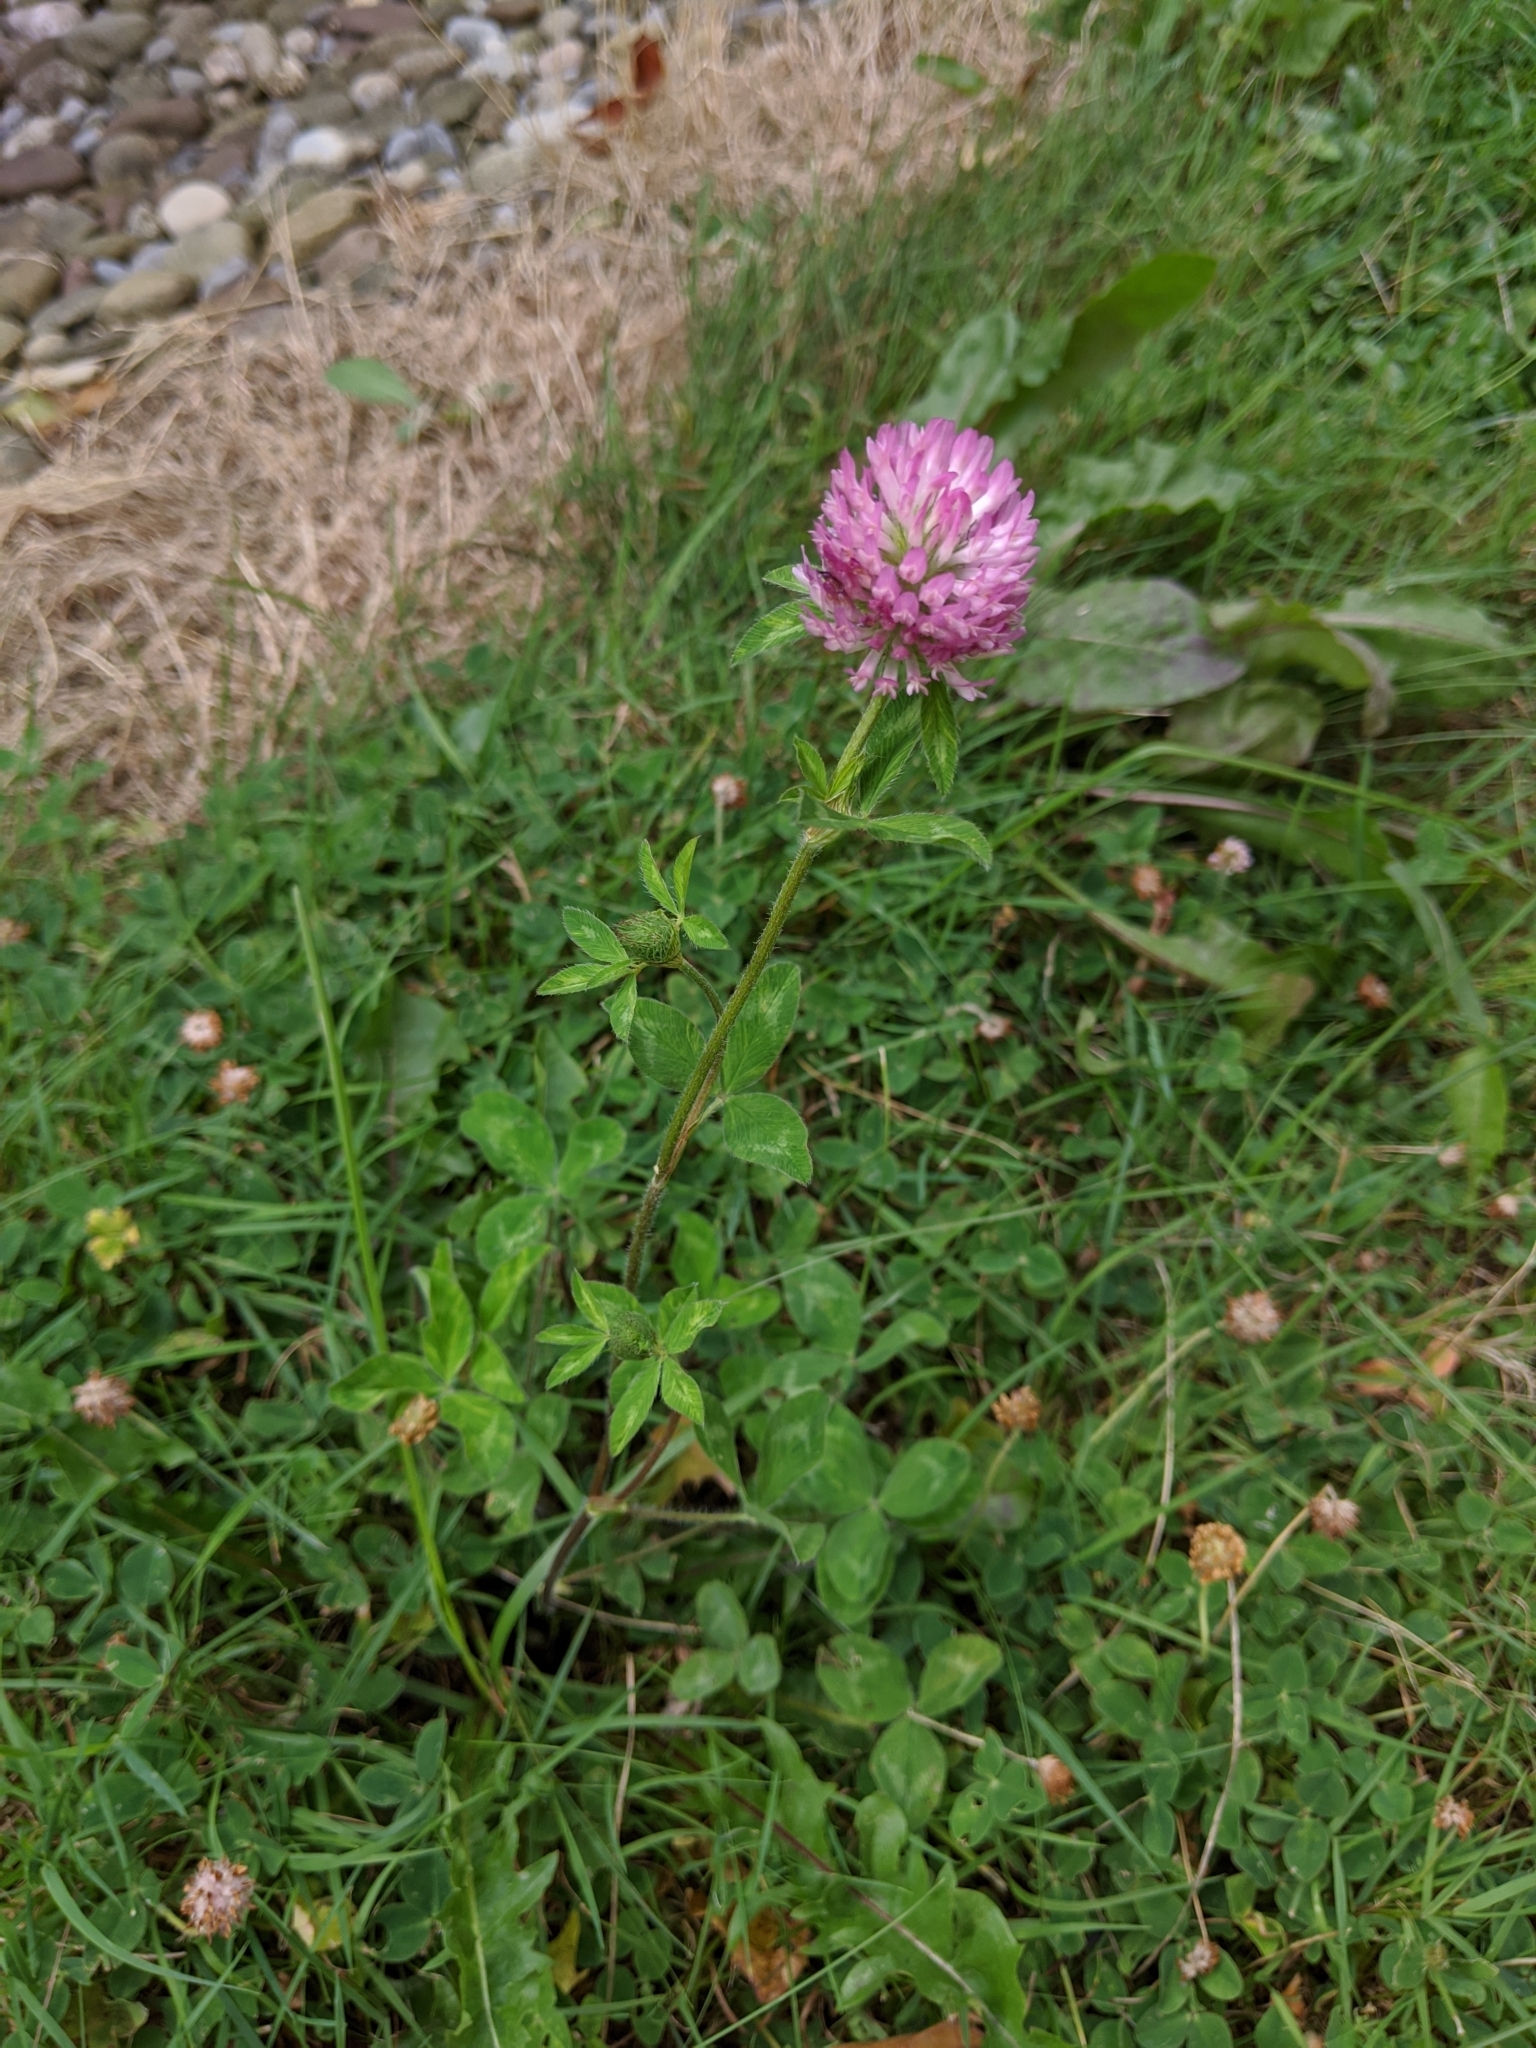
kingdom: Plantae
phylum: Tracheophyta
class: Magnoliopsida
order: Fabales
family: Fabaceae
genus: Trifolium
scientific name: Trifolium pratense
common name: Red clover
